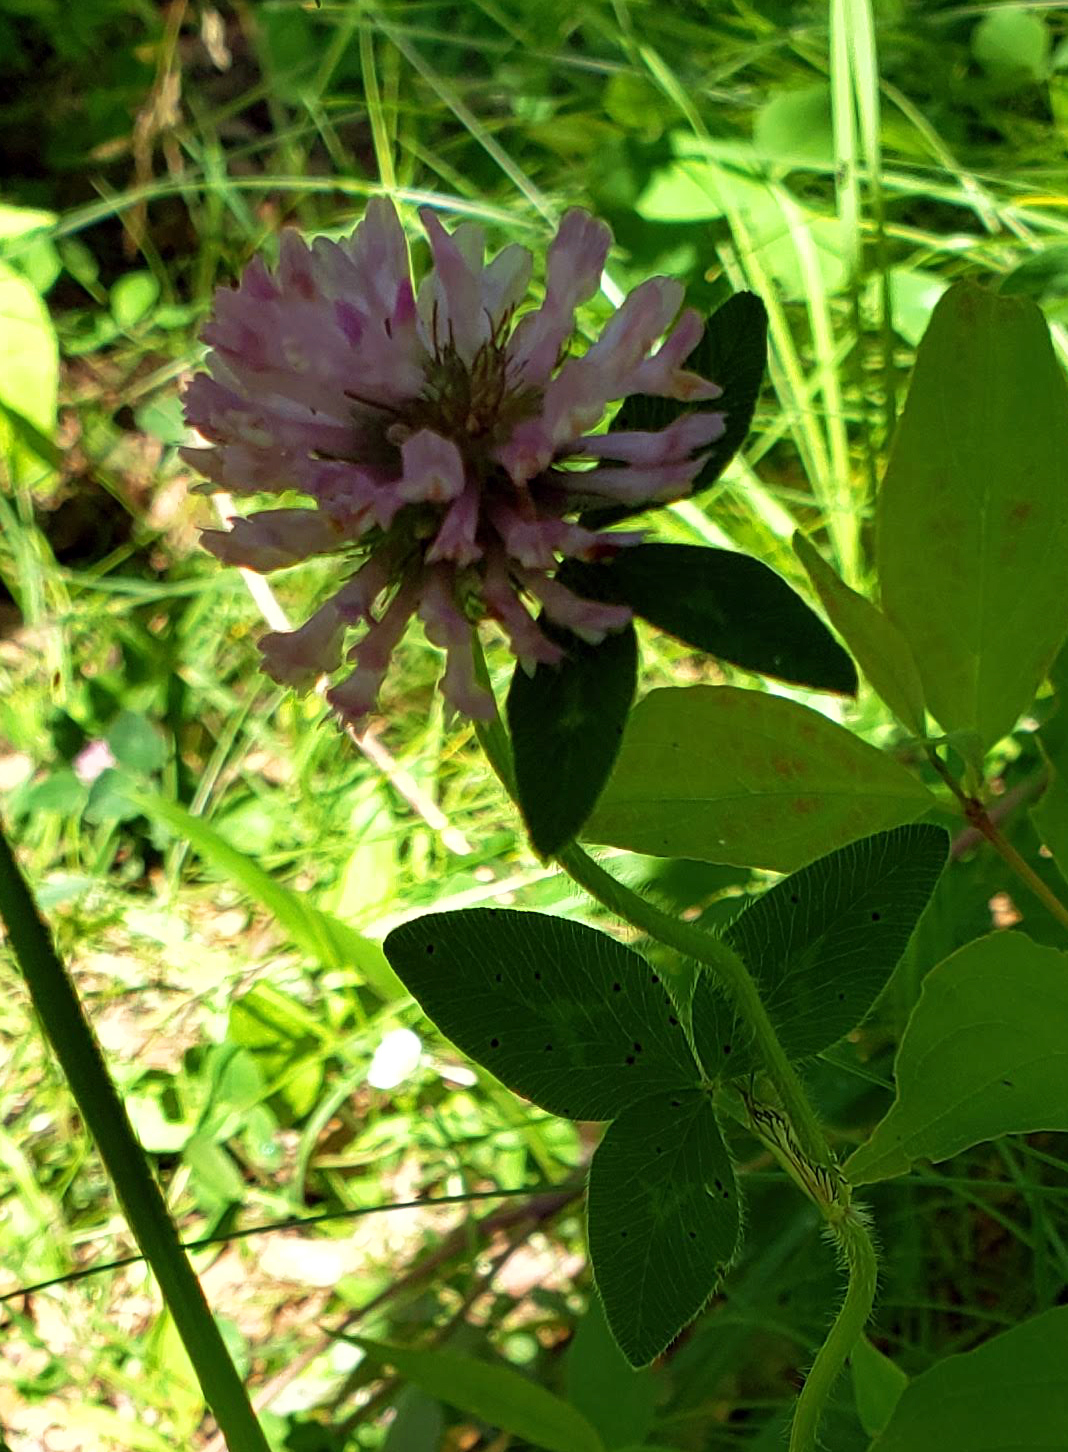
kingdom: Plantae
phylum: Tracheophyta
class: Magnoliopsida
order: Fabales
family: Fabaceae
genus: Trifolium
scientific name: Trifolium pratense
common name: Red clover
